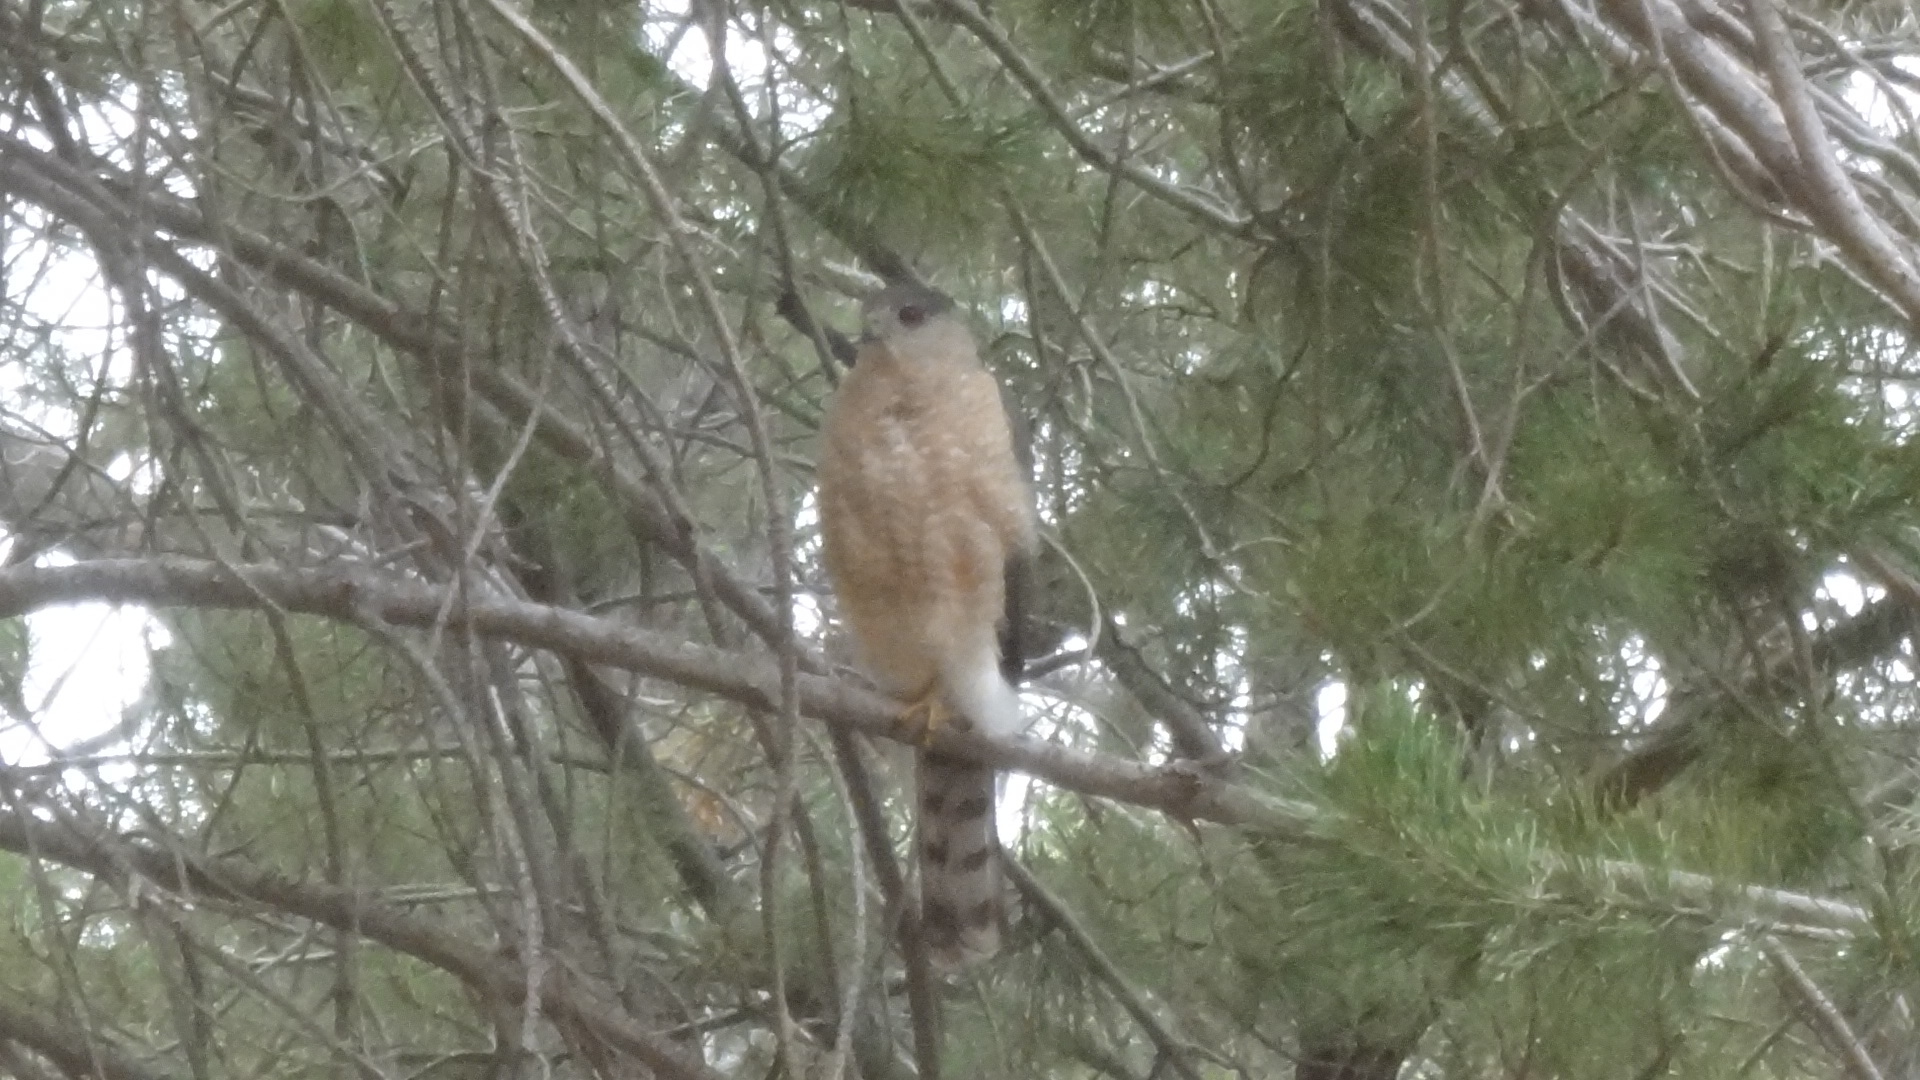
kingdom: Animalia
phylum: Chordata
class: Aves
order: Accipitriformes
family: Accipitridae
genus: Accipiter
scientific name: Accipiter cooperii
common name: Cooper's hawk
